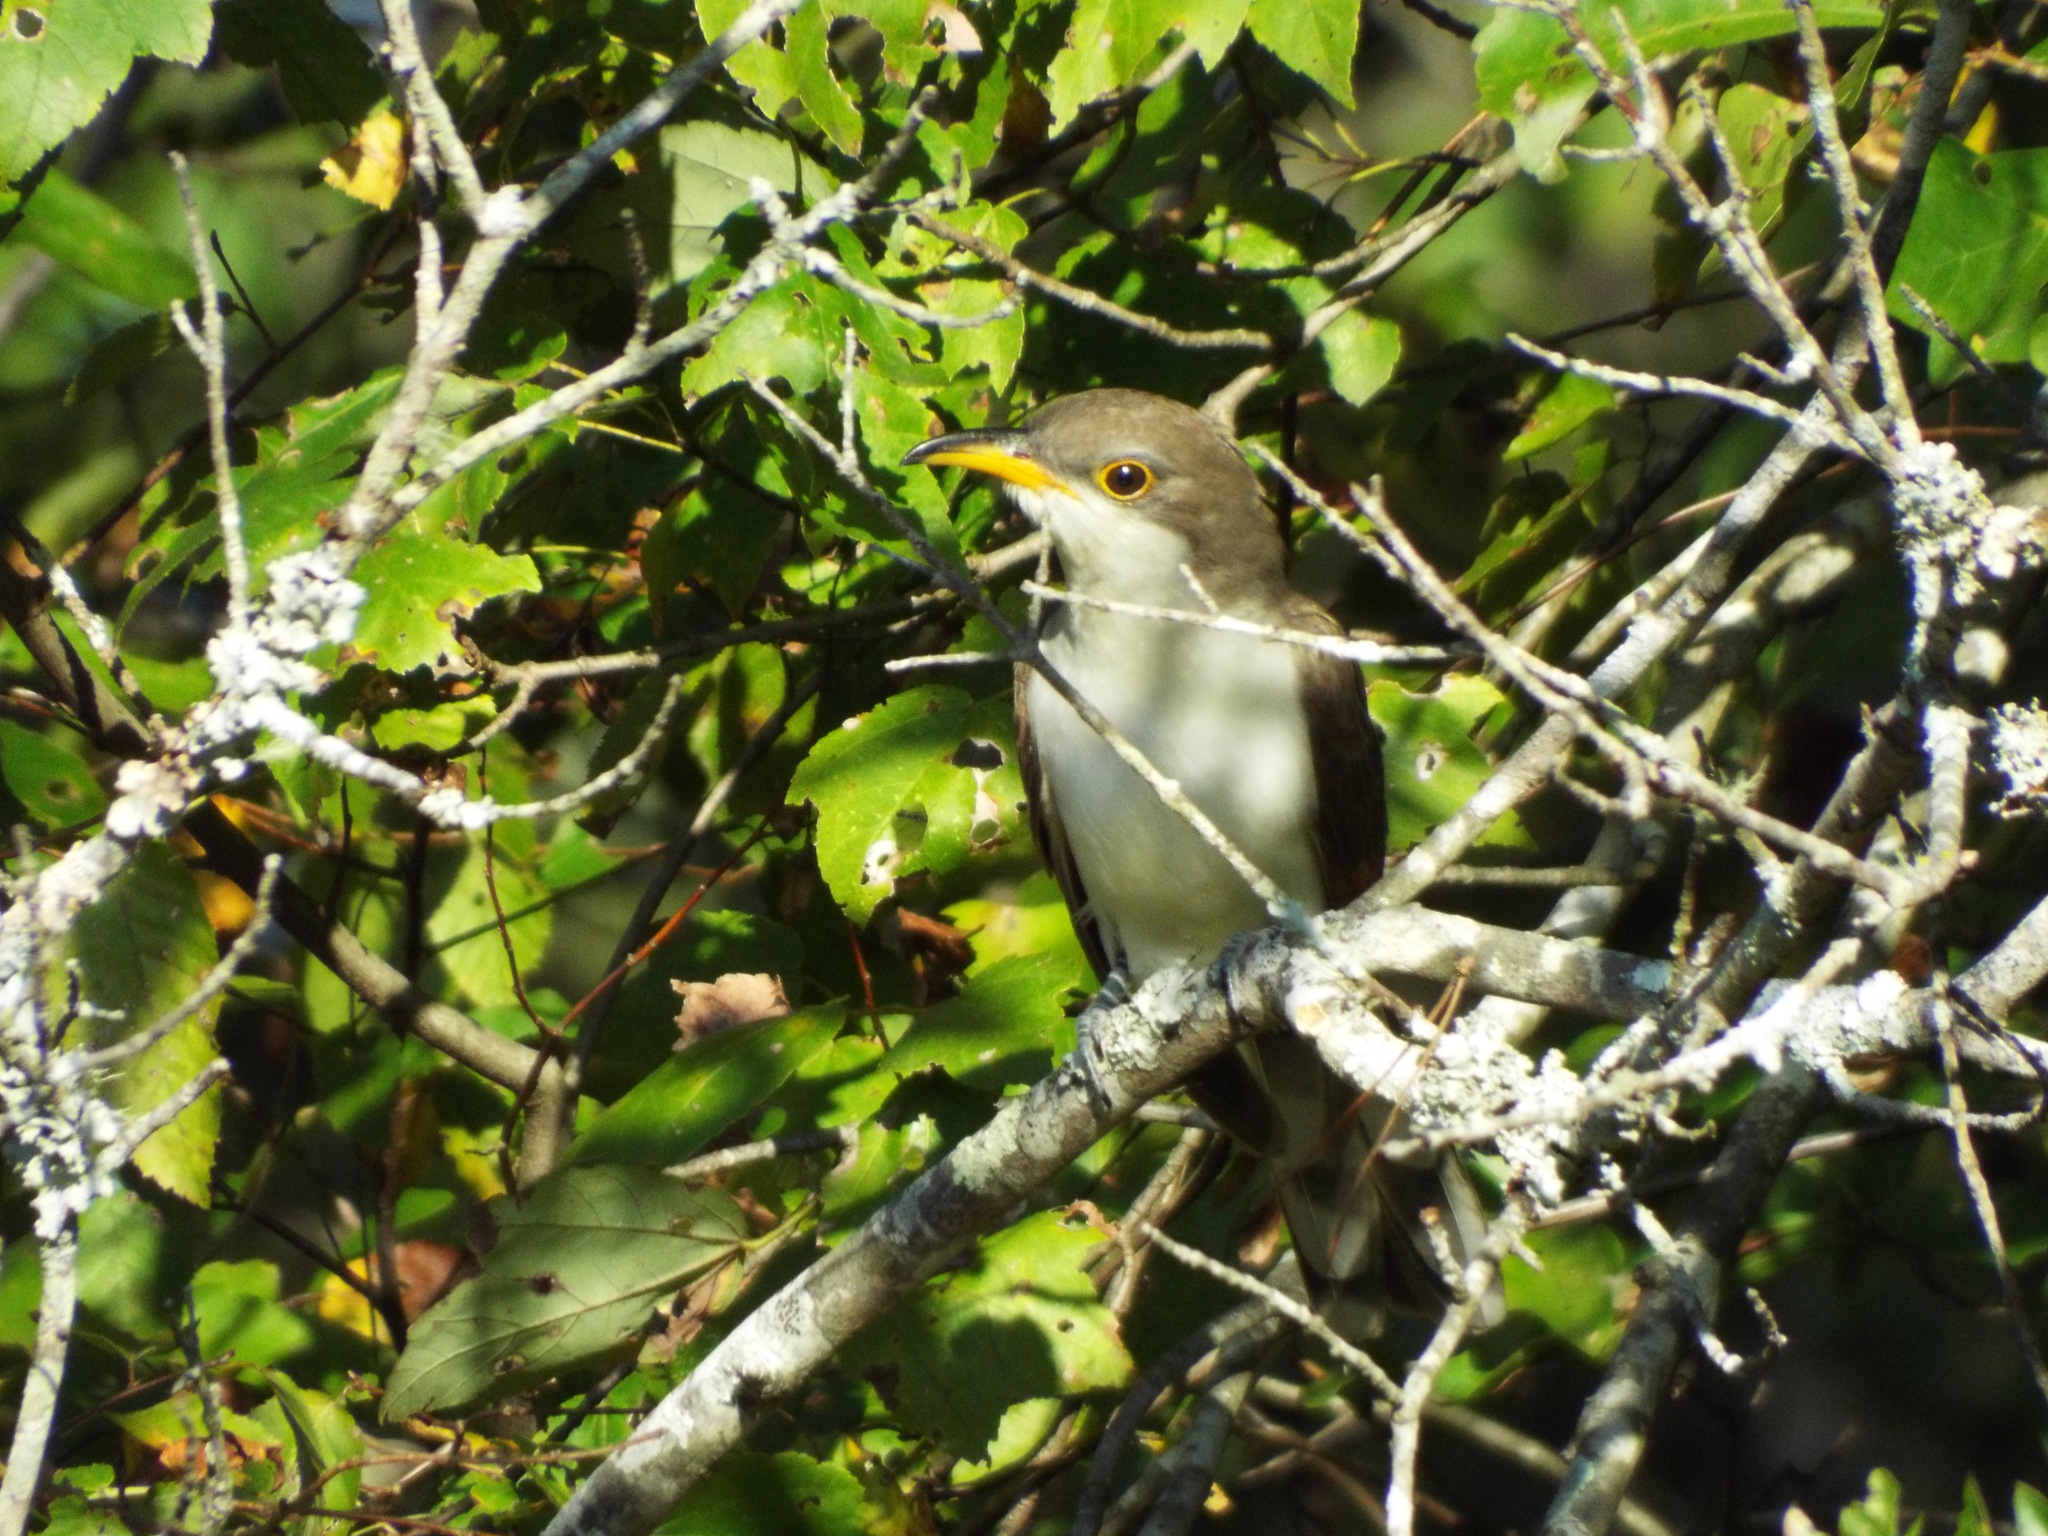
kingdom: Animalia
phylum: Chordata
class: Aves
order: Cuculiformes
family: Cuculidae
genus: Coccyzus
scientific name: Coccyzus americanus
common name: Yellow-billed cuckoo
